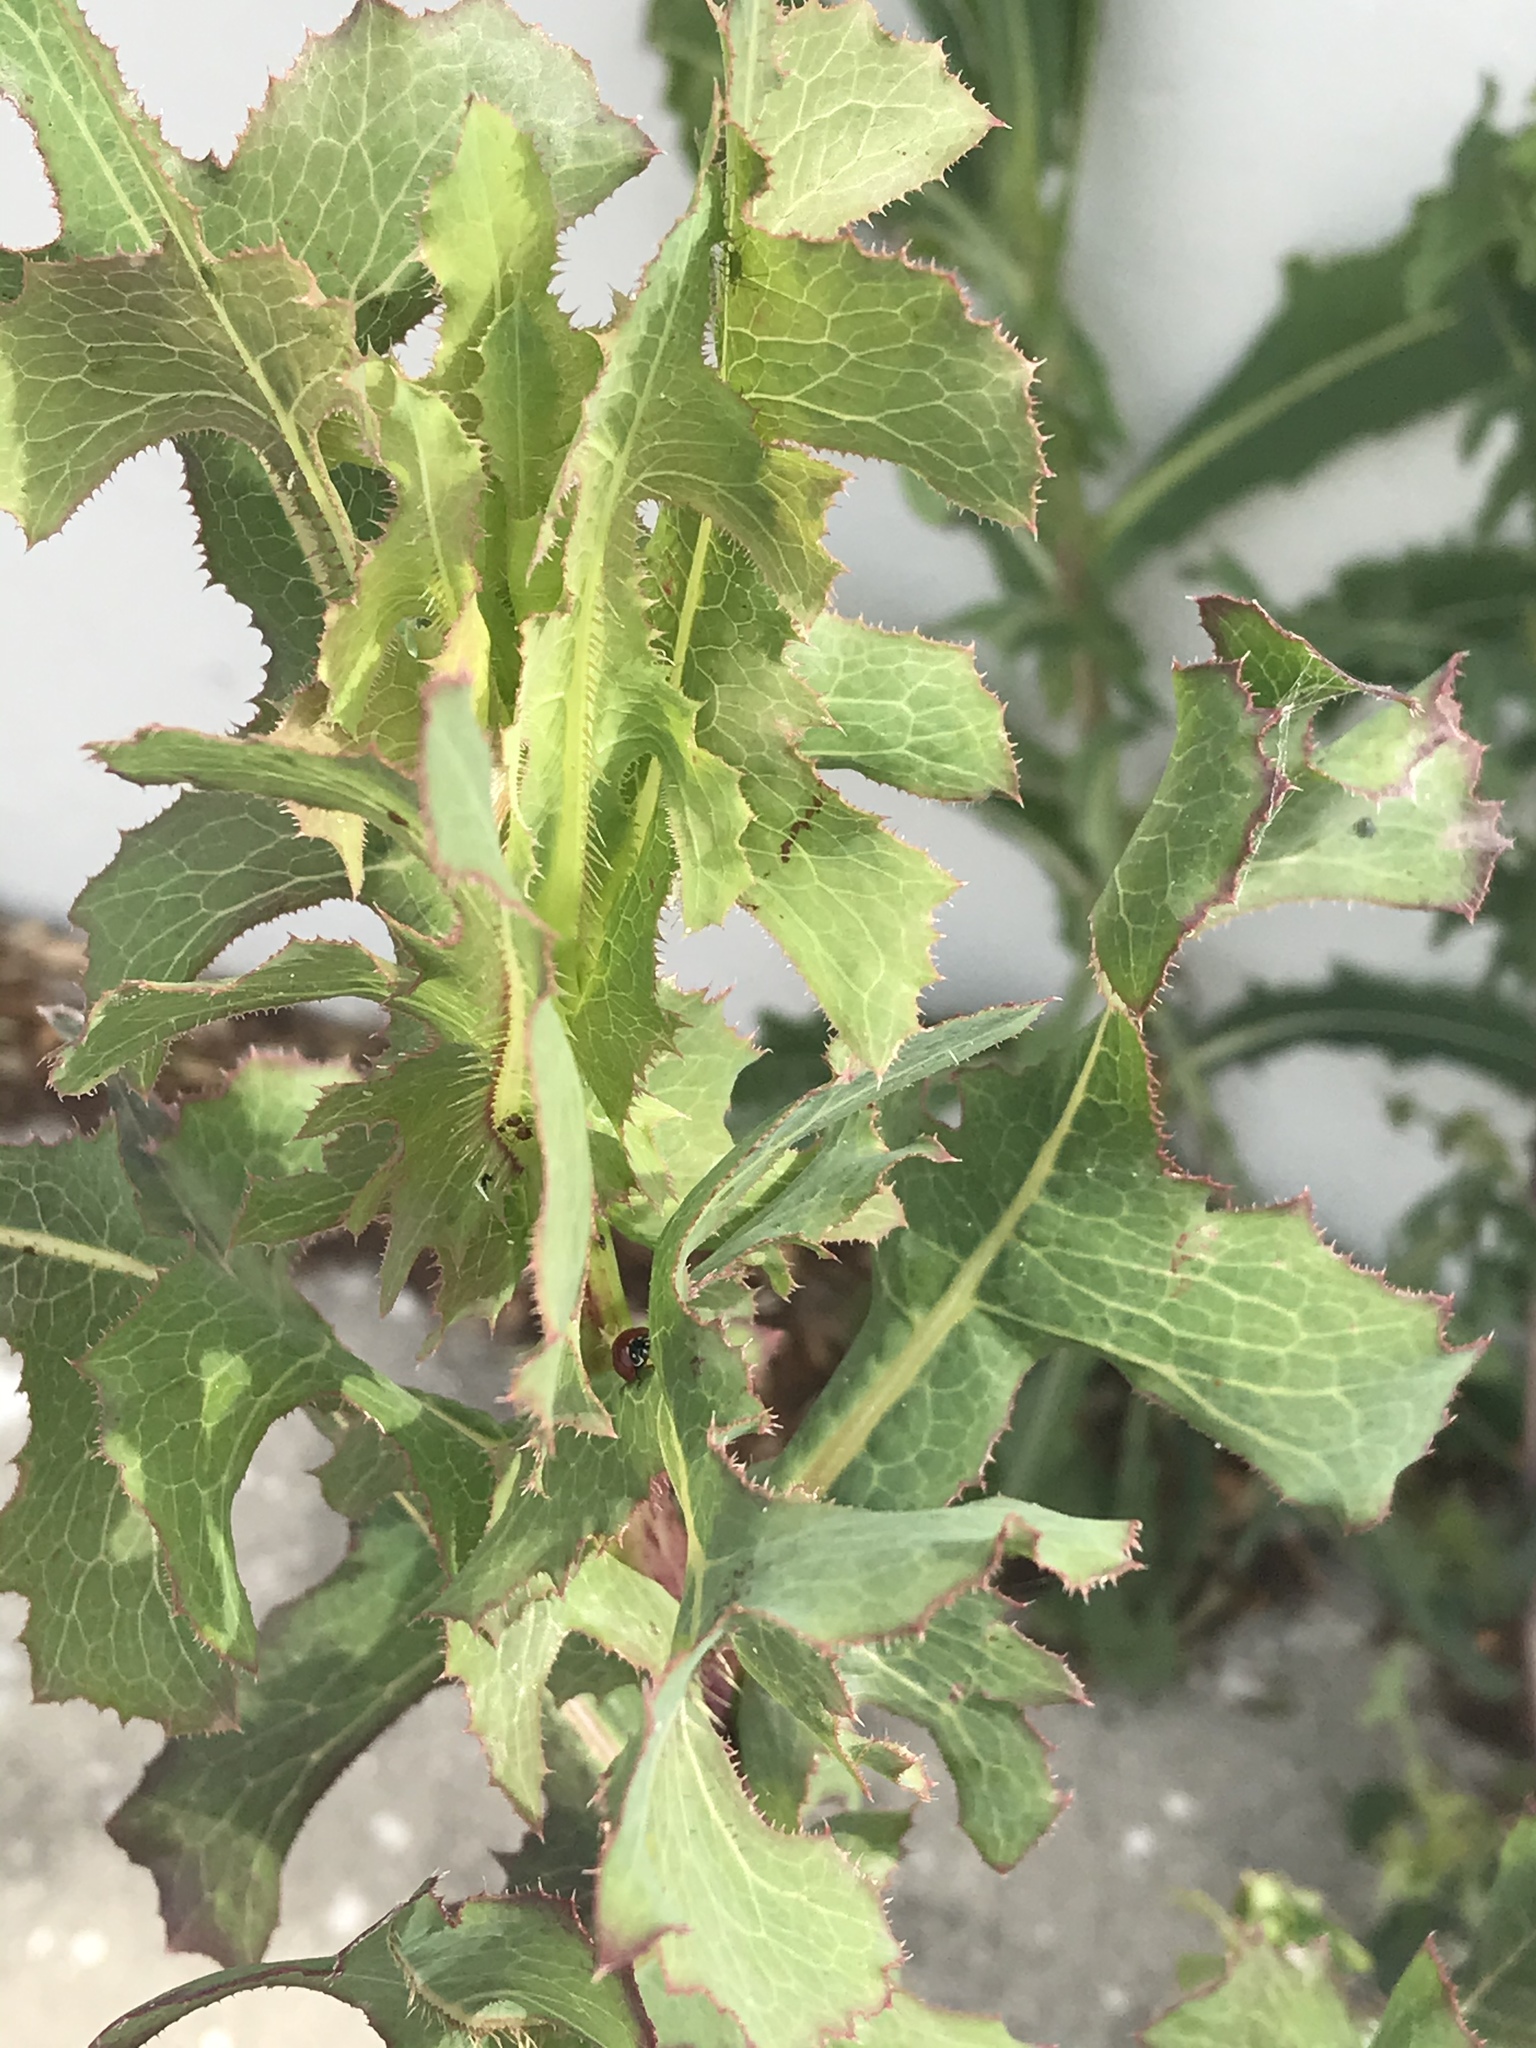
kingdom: Plantae
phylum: Tracheophyta
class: Magnoliopsida
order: Asterales
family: Asteraceae
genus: Lactuca
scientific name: Lactuca serriola
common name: Prickly lettuce
